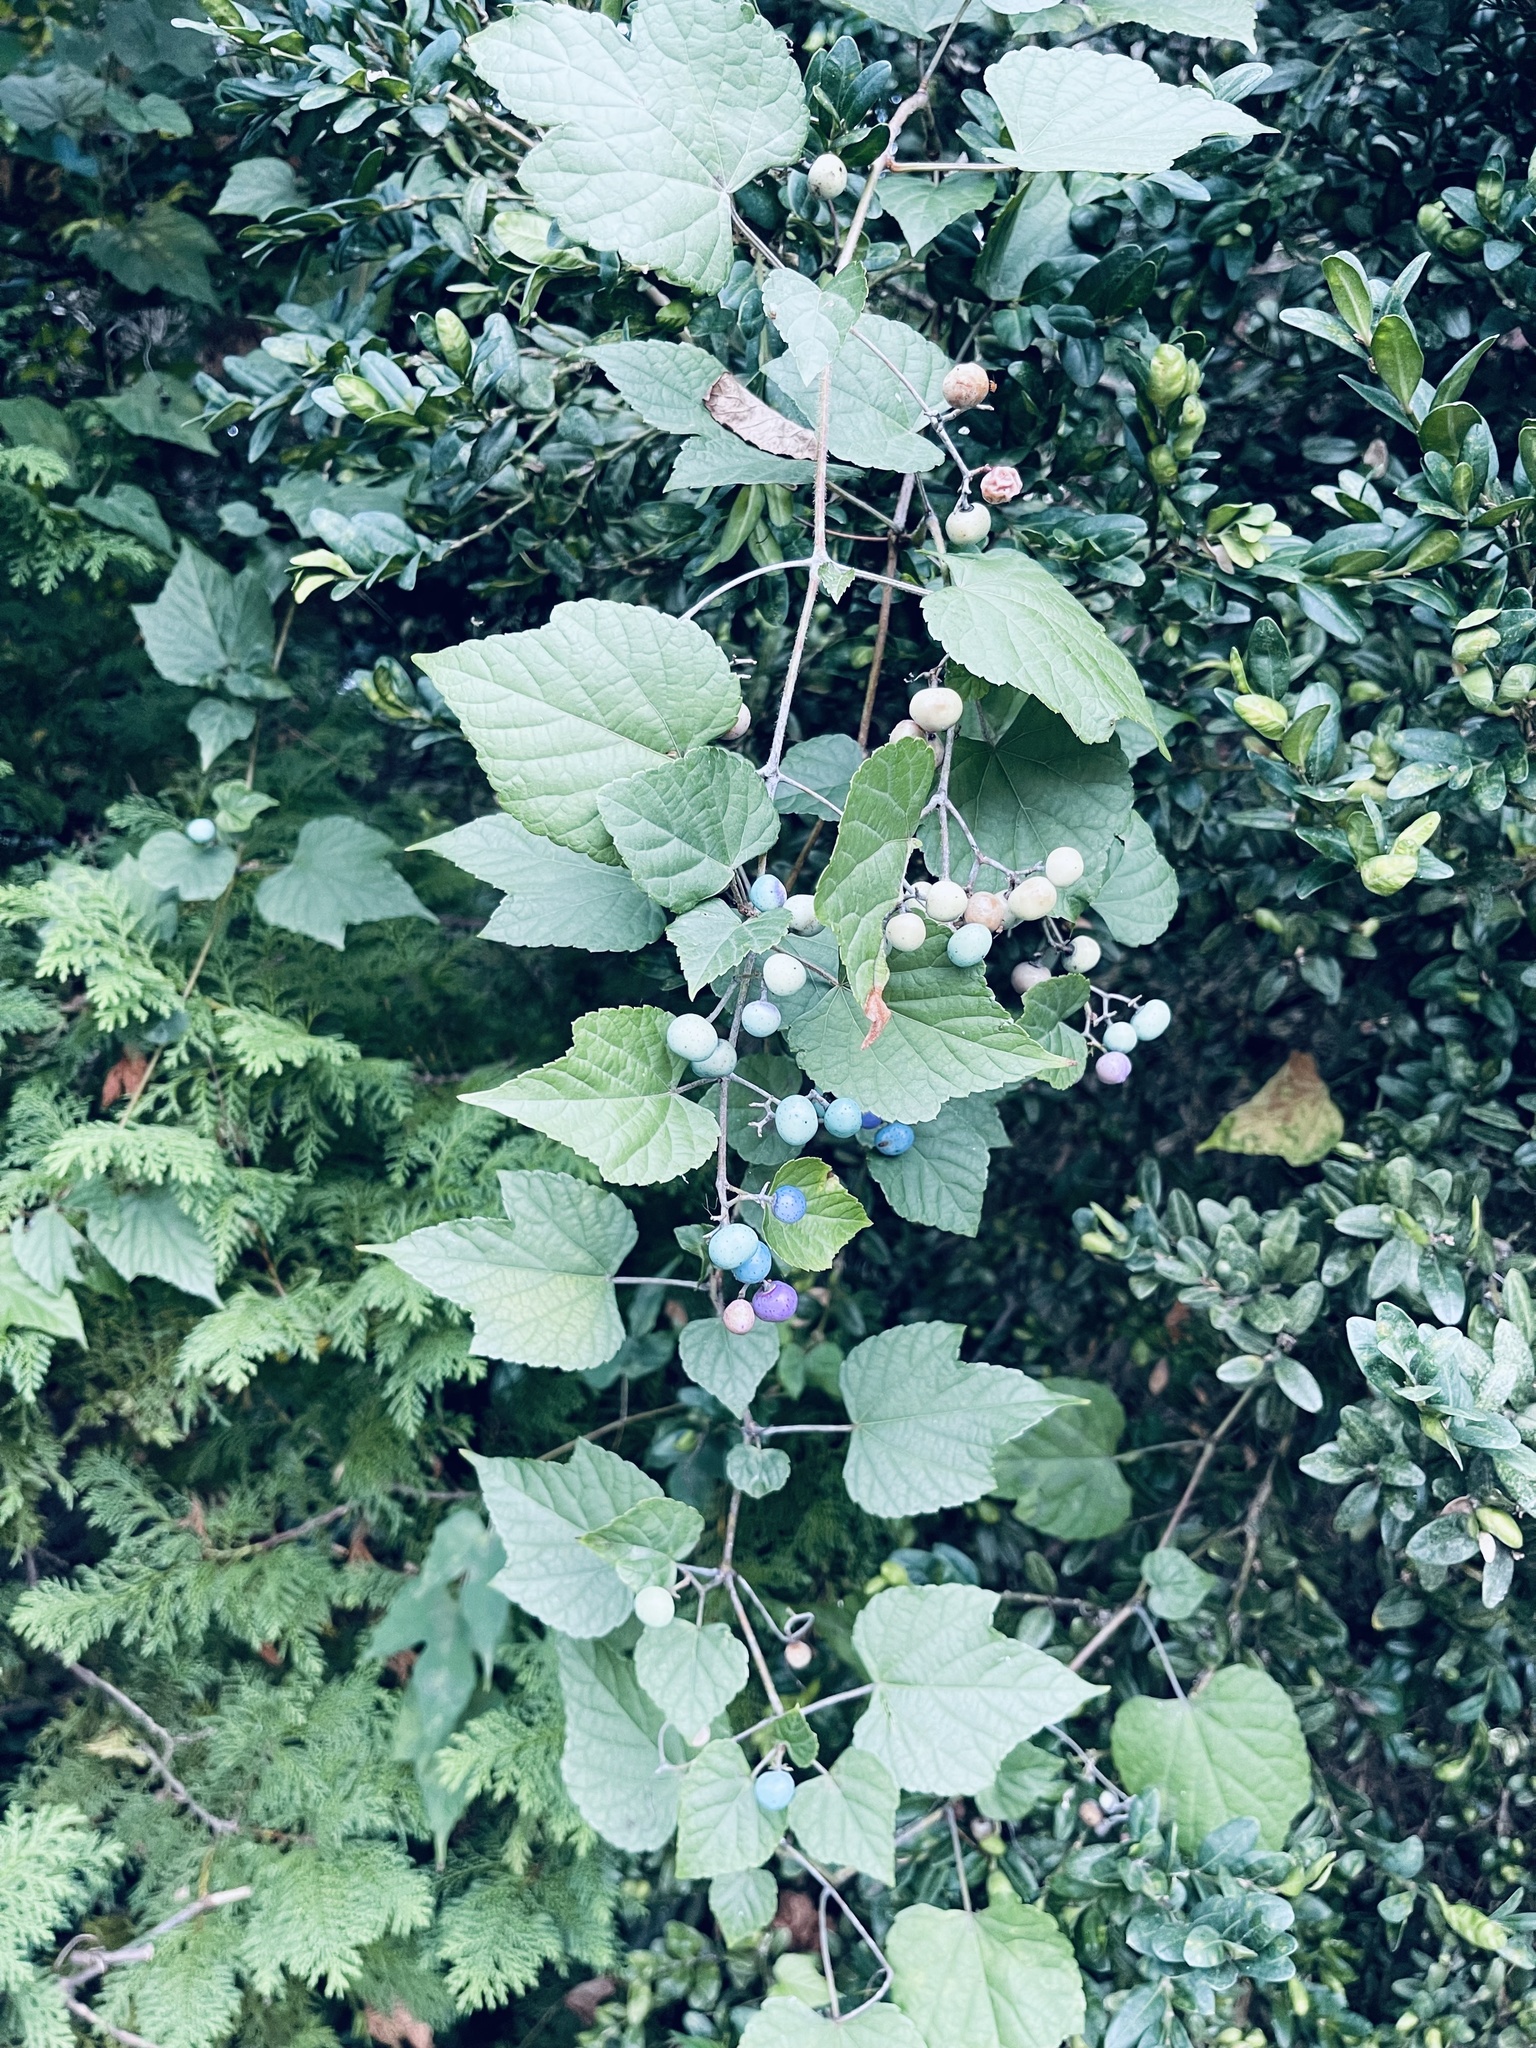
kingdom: Plantae
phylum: Tracheophyta
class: Magnoliopsida
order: Vitales
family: Vitaceae
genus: Ampelopsis
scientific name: Ampelopsis glandulosa
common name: Amur peppervine
